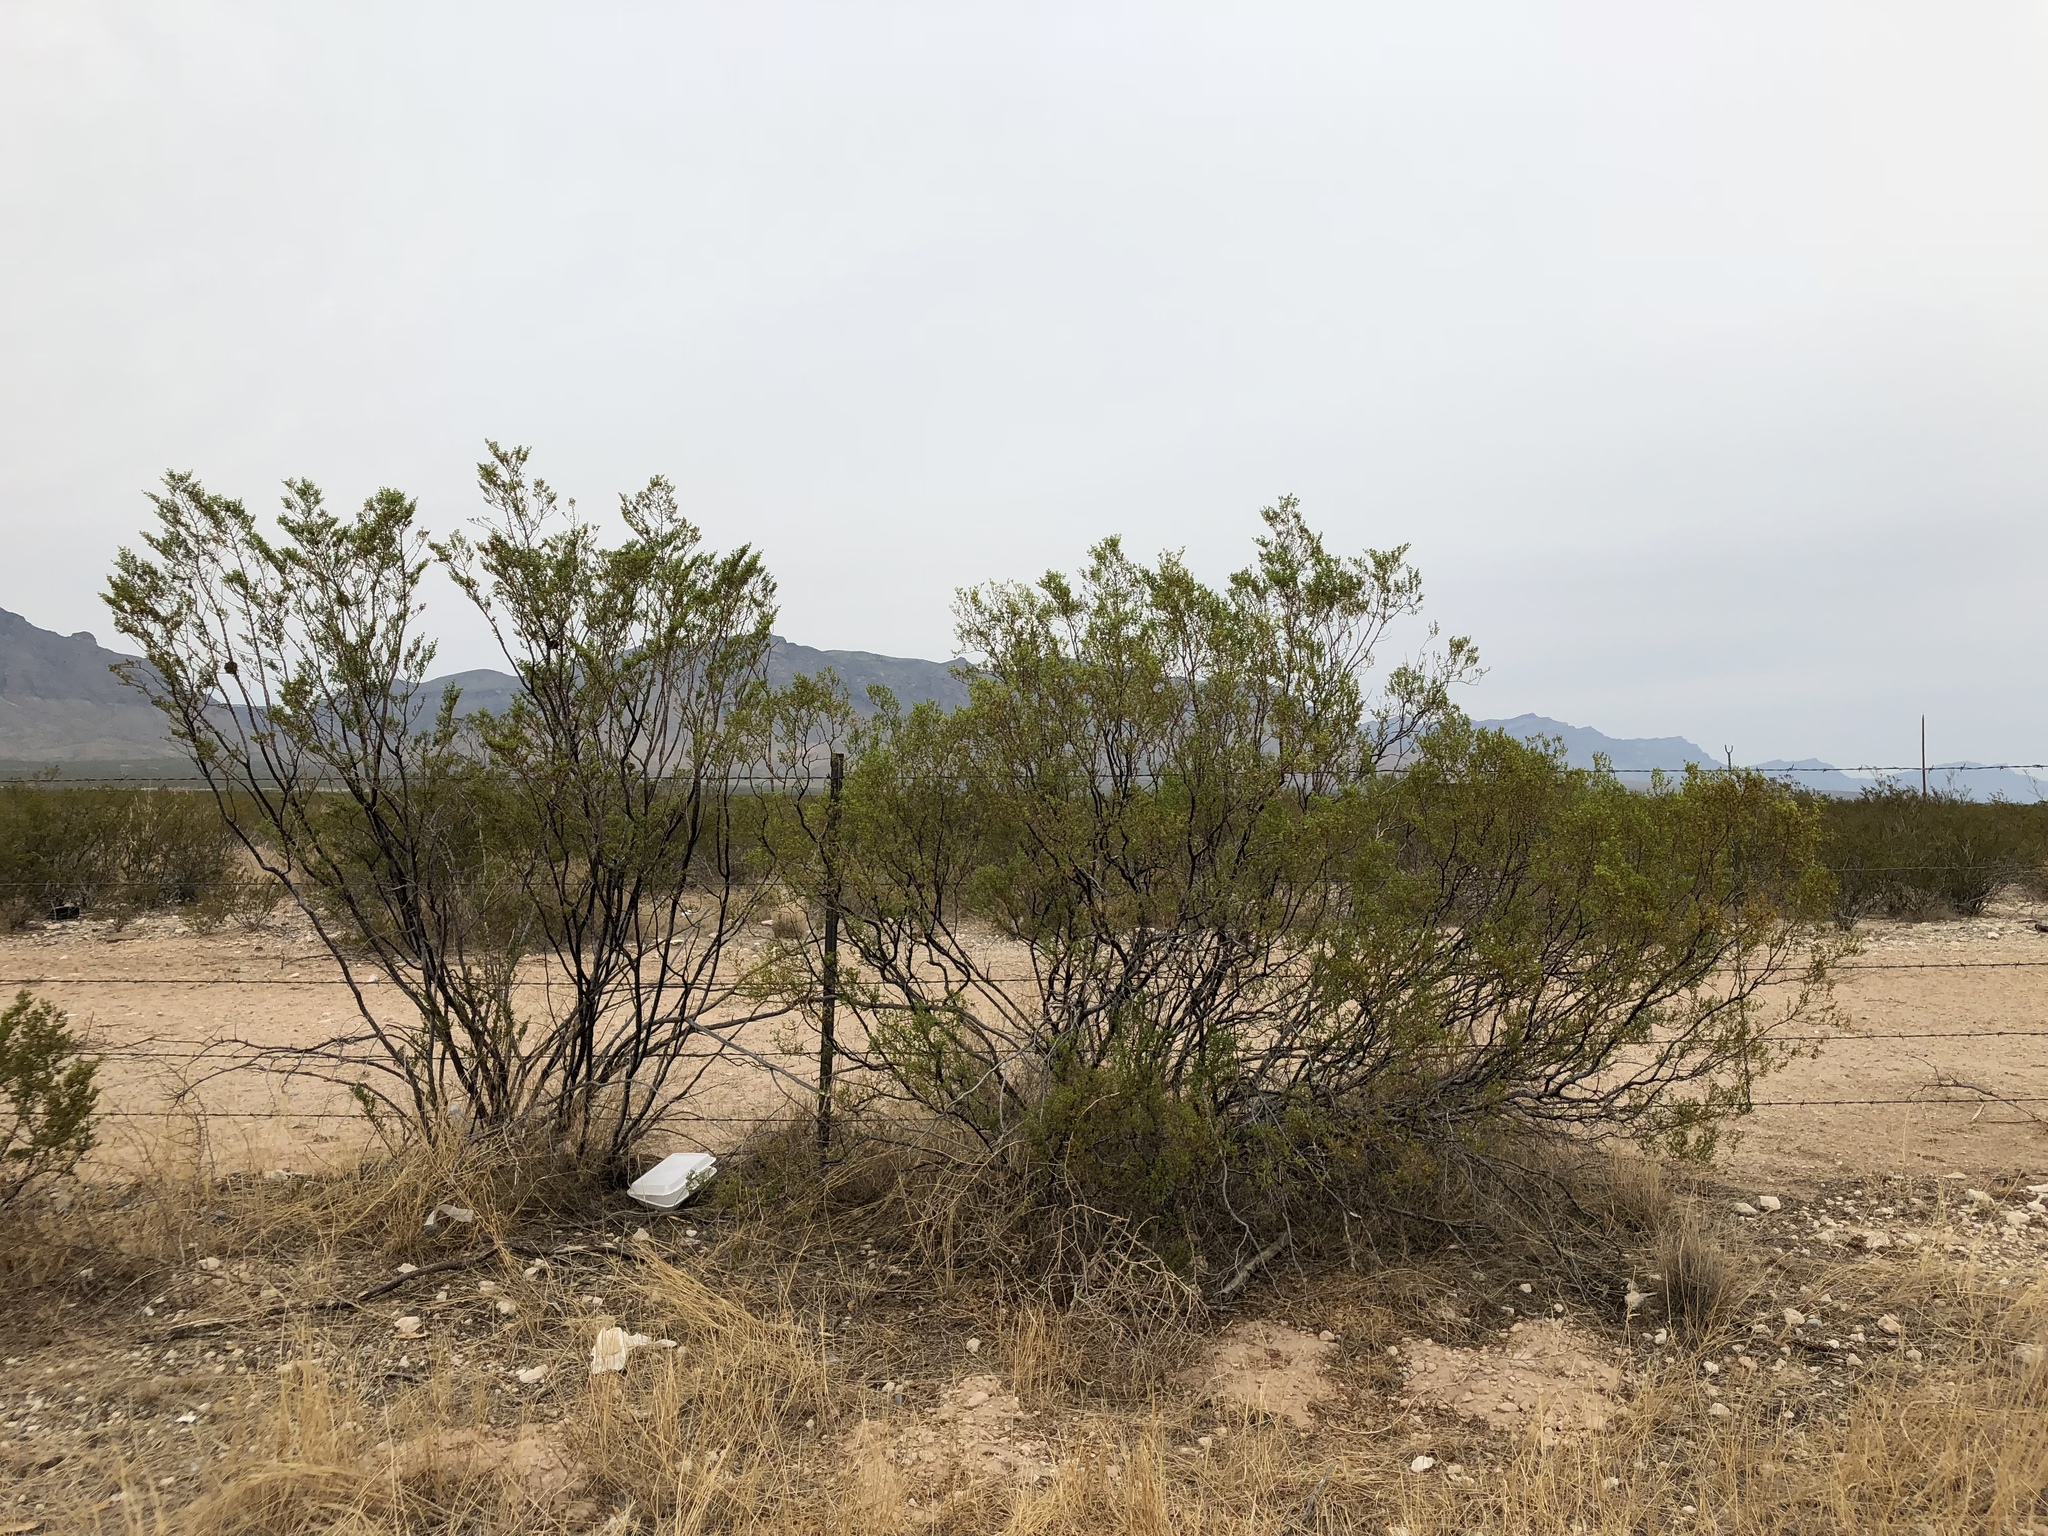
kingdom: Plantae
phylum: Tracheophyta
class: Magnoliopsida
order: Zygophyllales
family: Zygophyllaceae
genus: Larrea
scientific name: Larrea tridentata
